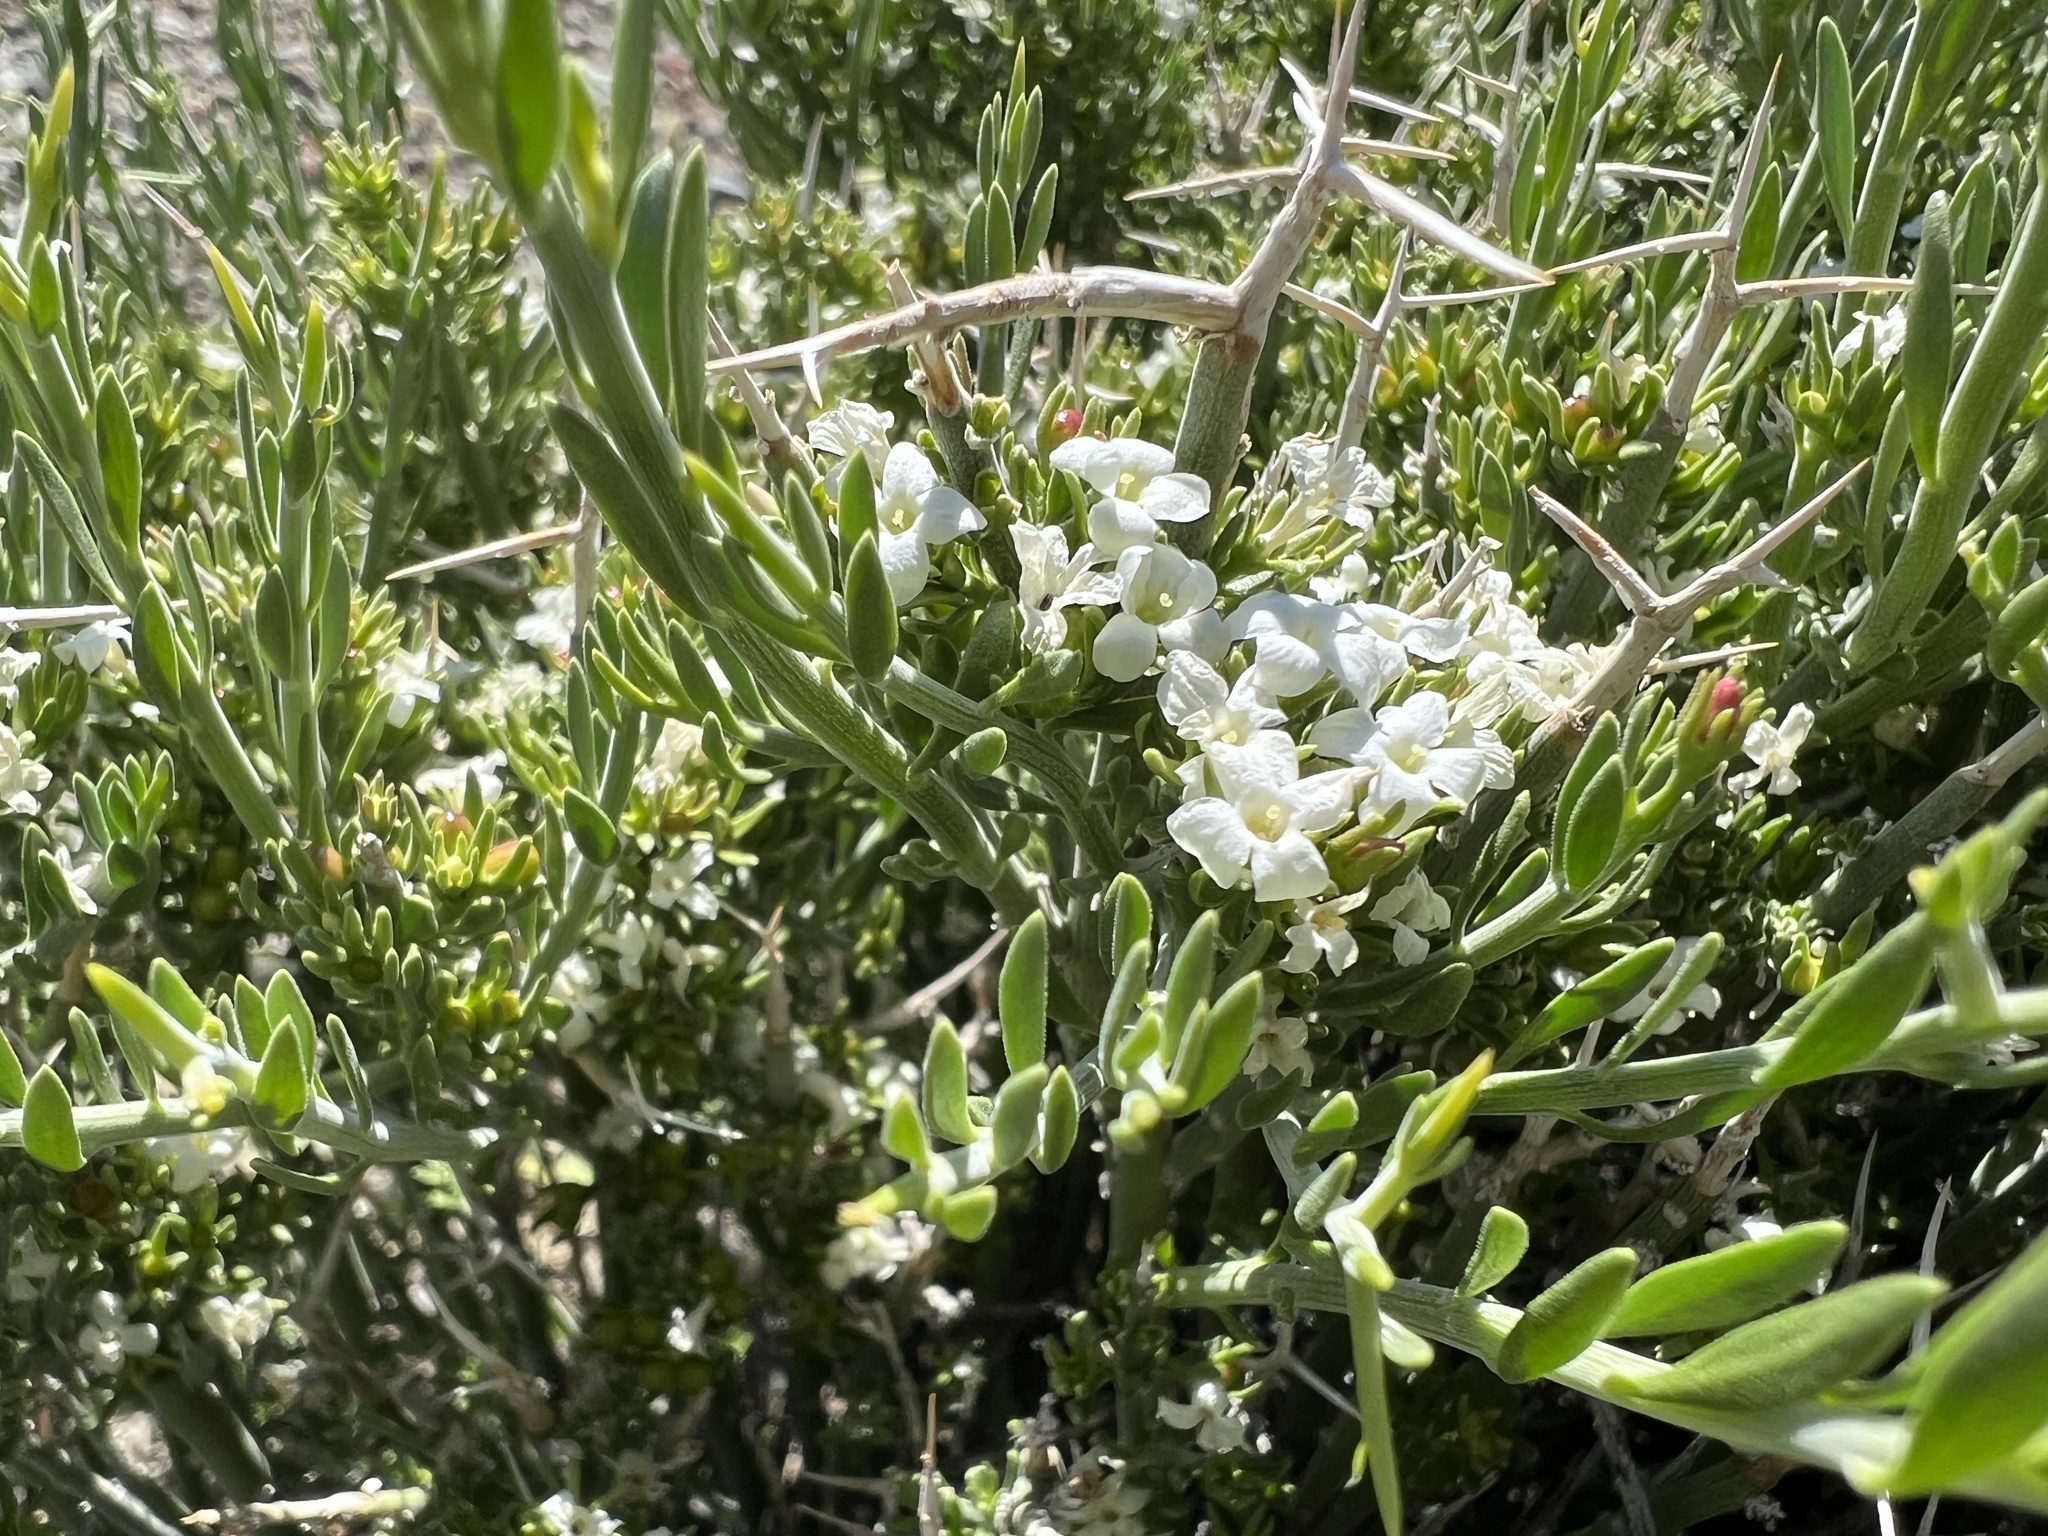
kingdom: Plantae
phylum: Tracheophyta
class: Magnoliopsida
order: Lamiales
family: Oleaceae
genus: Menodora
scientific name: Menodora spinescens
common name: Spiny menodora
